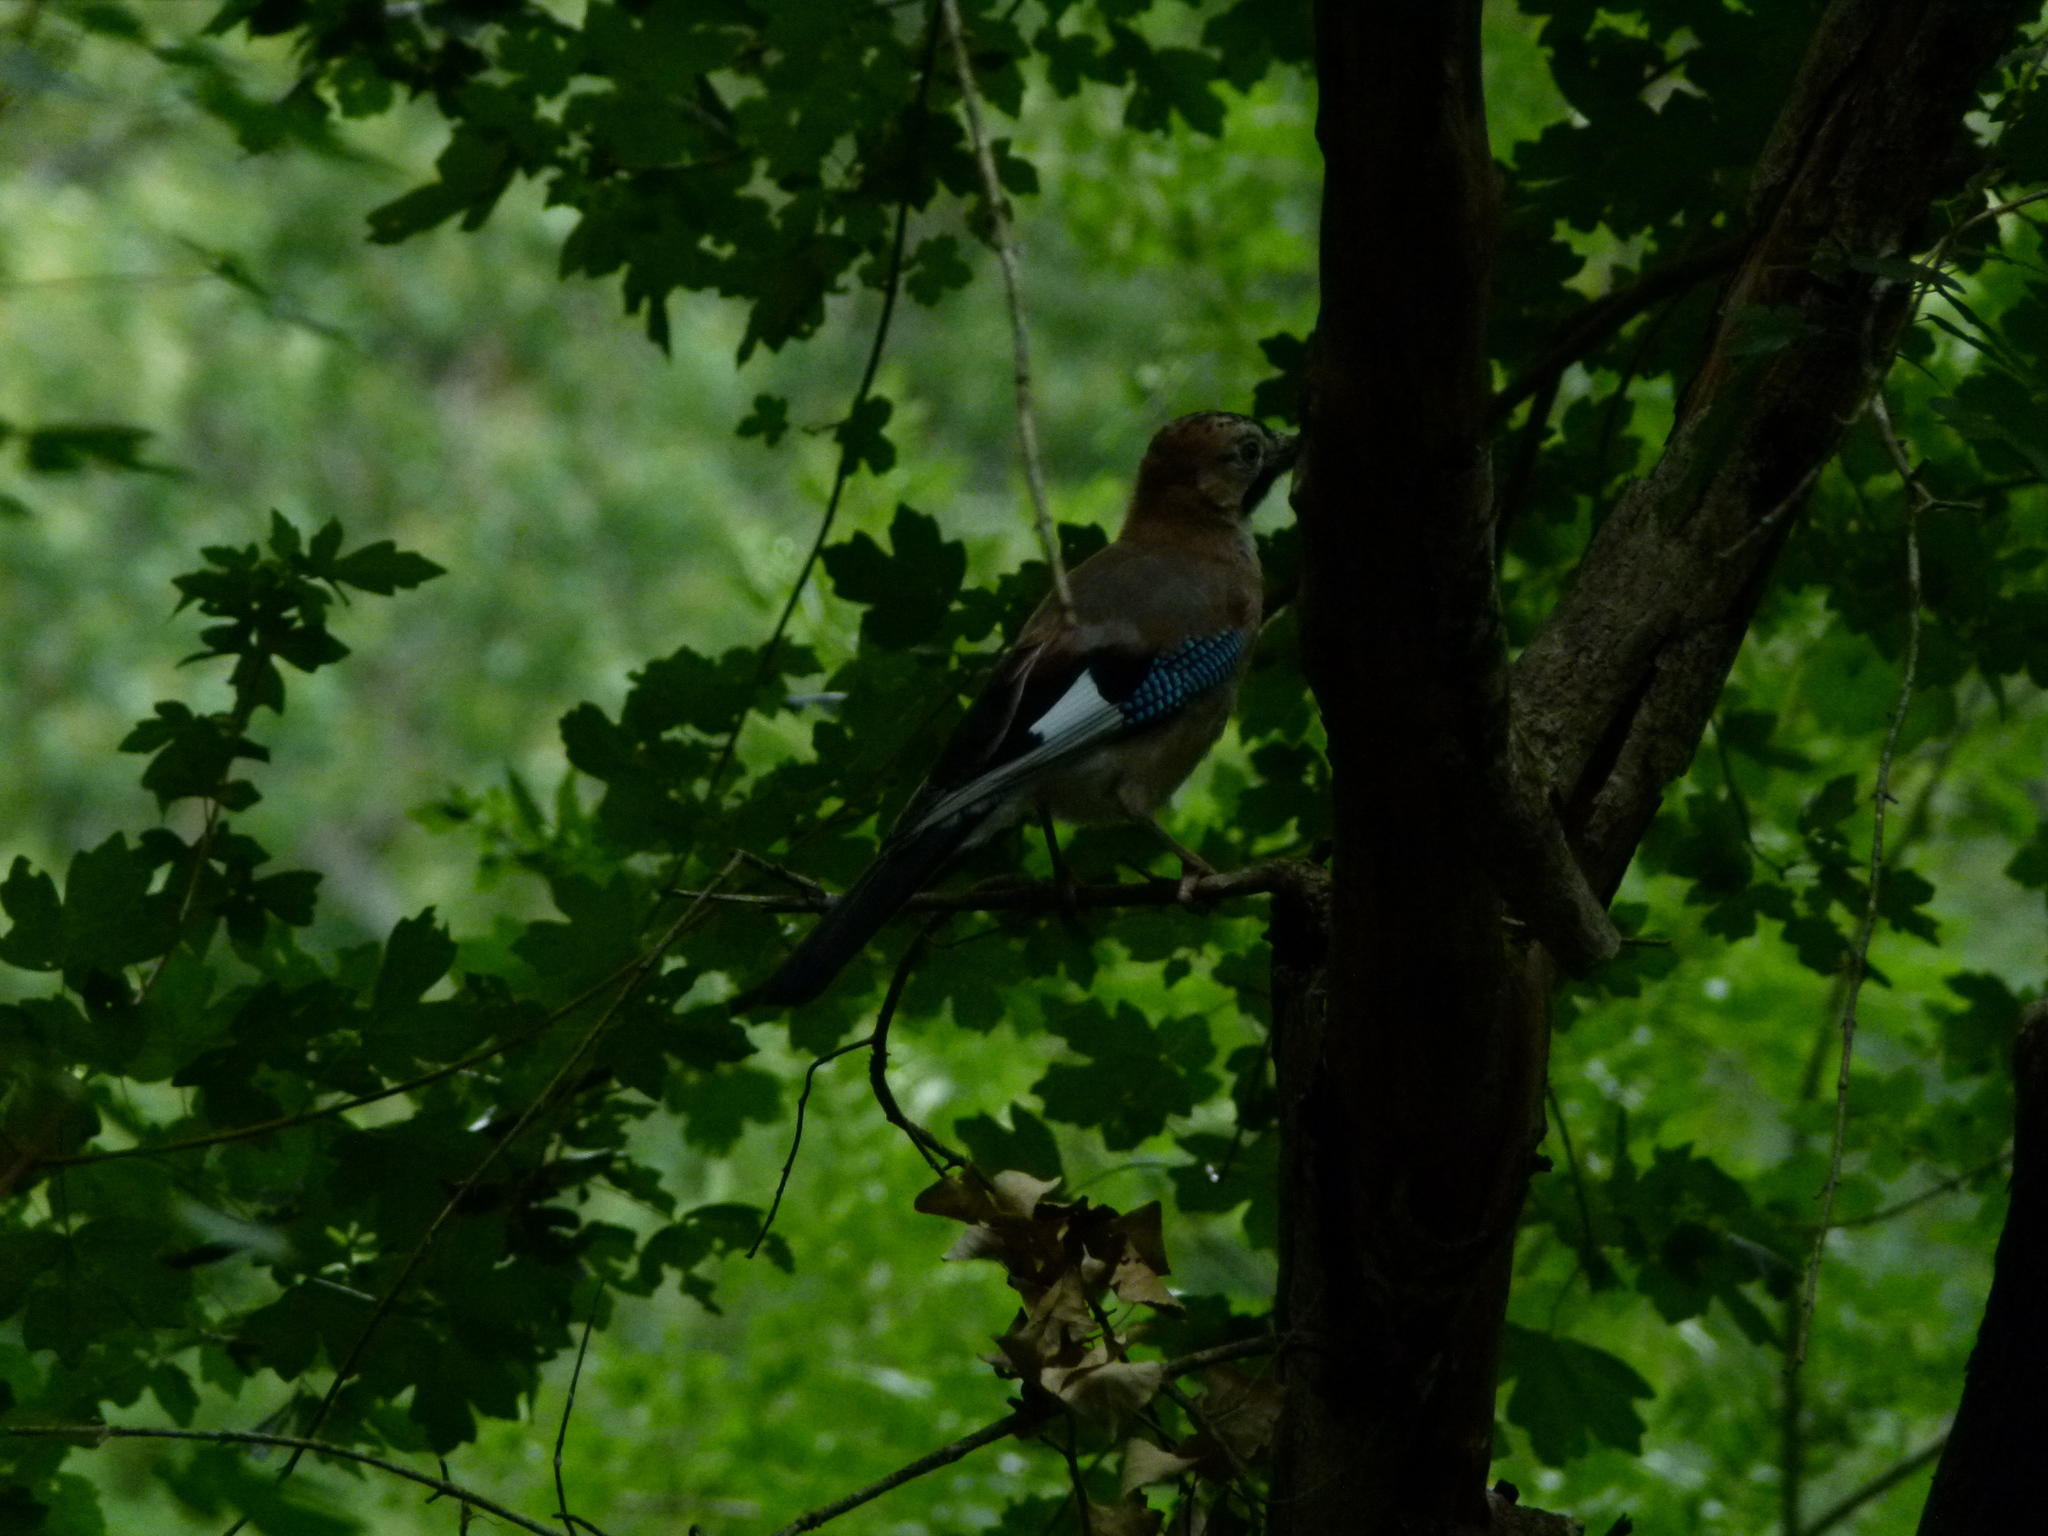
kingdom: Animalia
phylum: Chordata
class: Aves
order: Passeriformes
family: Corvidae
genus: Garrulus
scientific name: Garrulus glandarius
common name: Eurasian jay
